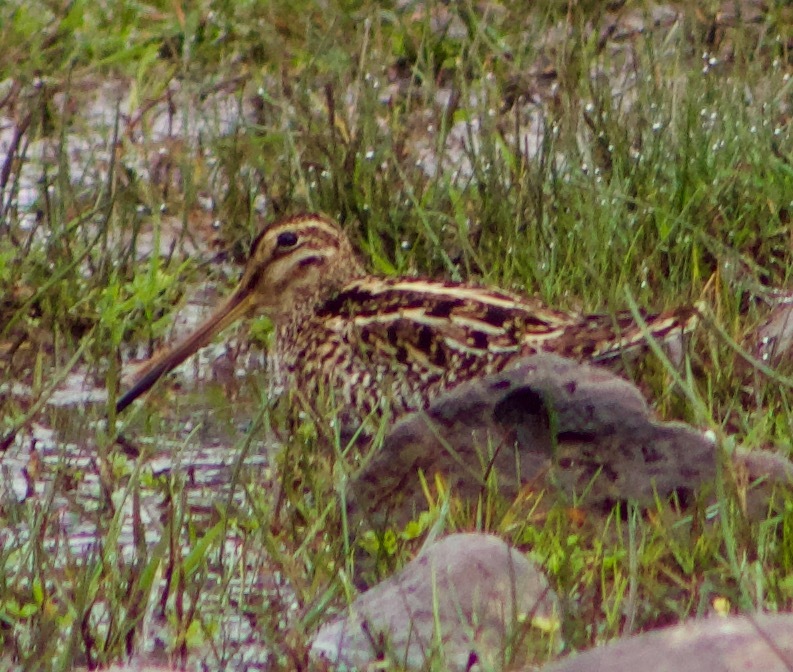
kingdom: Animalia
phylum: Chordata
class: Aves
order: Charadriiformes
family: Scolopacidae
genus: Gallinago
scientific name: Gallinago magellanica
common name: Magellanic snipe
